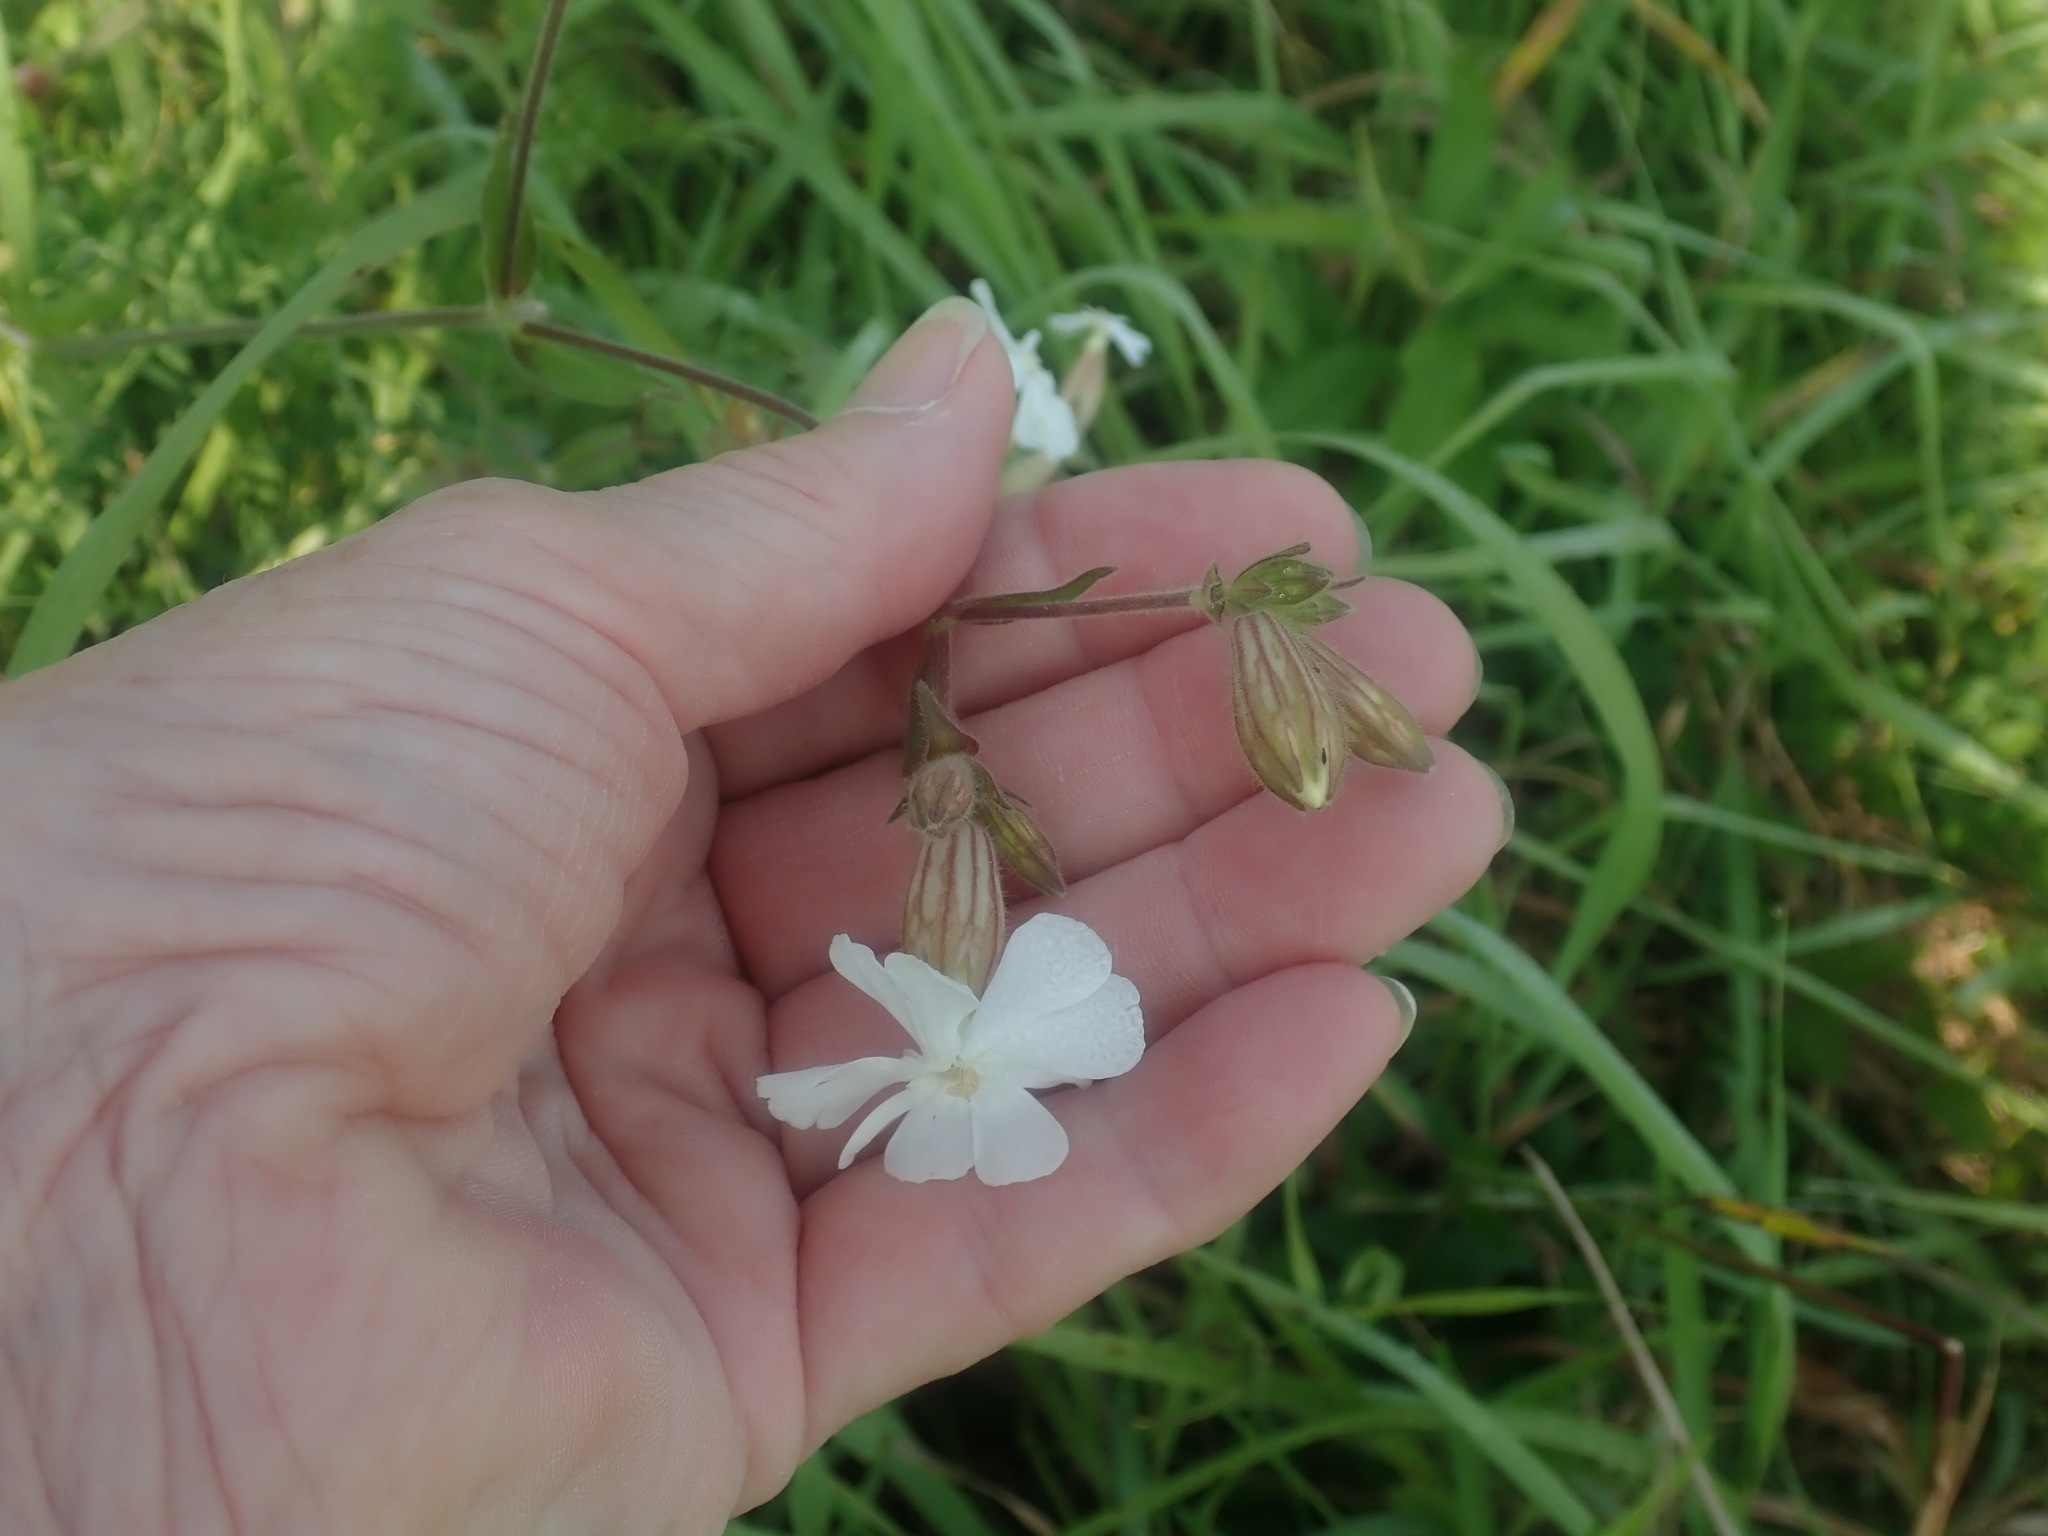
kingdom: Plantae
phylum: Tracheophyta
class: Magnoliopsida
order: Caryophyllales
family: Caryophyllaceae
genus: Silene
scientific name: Silene latifolia
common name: White campion
